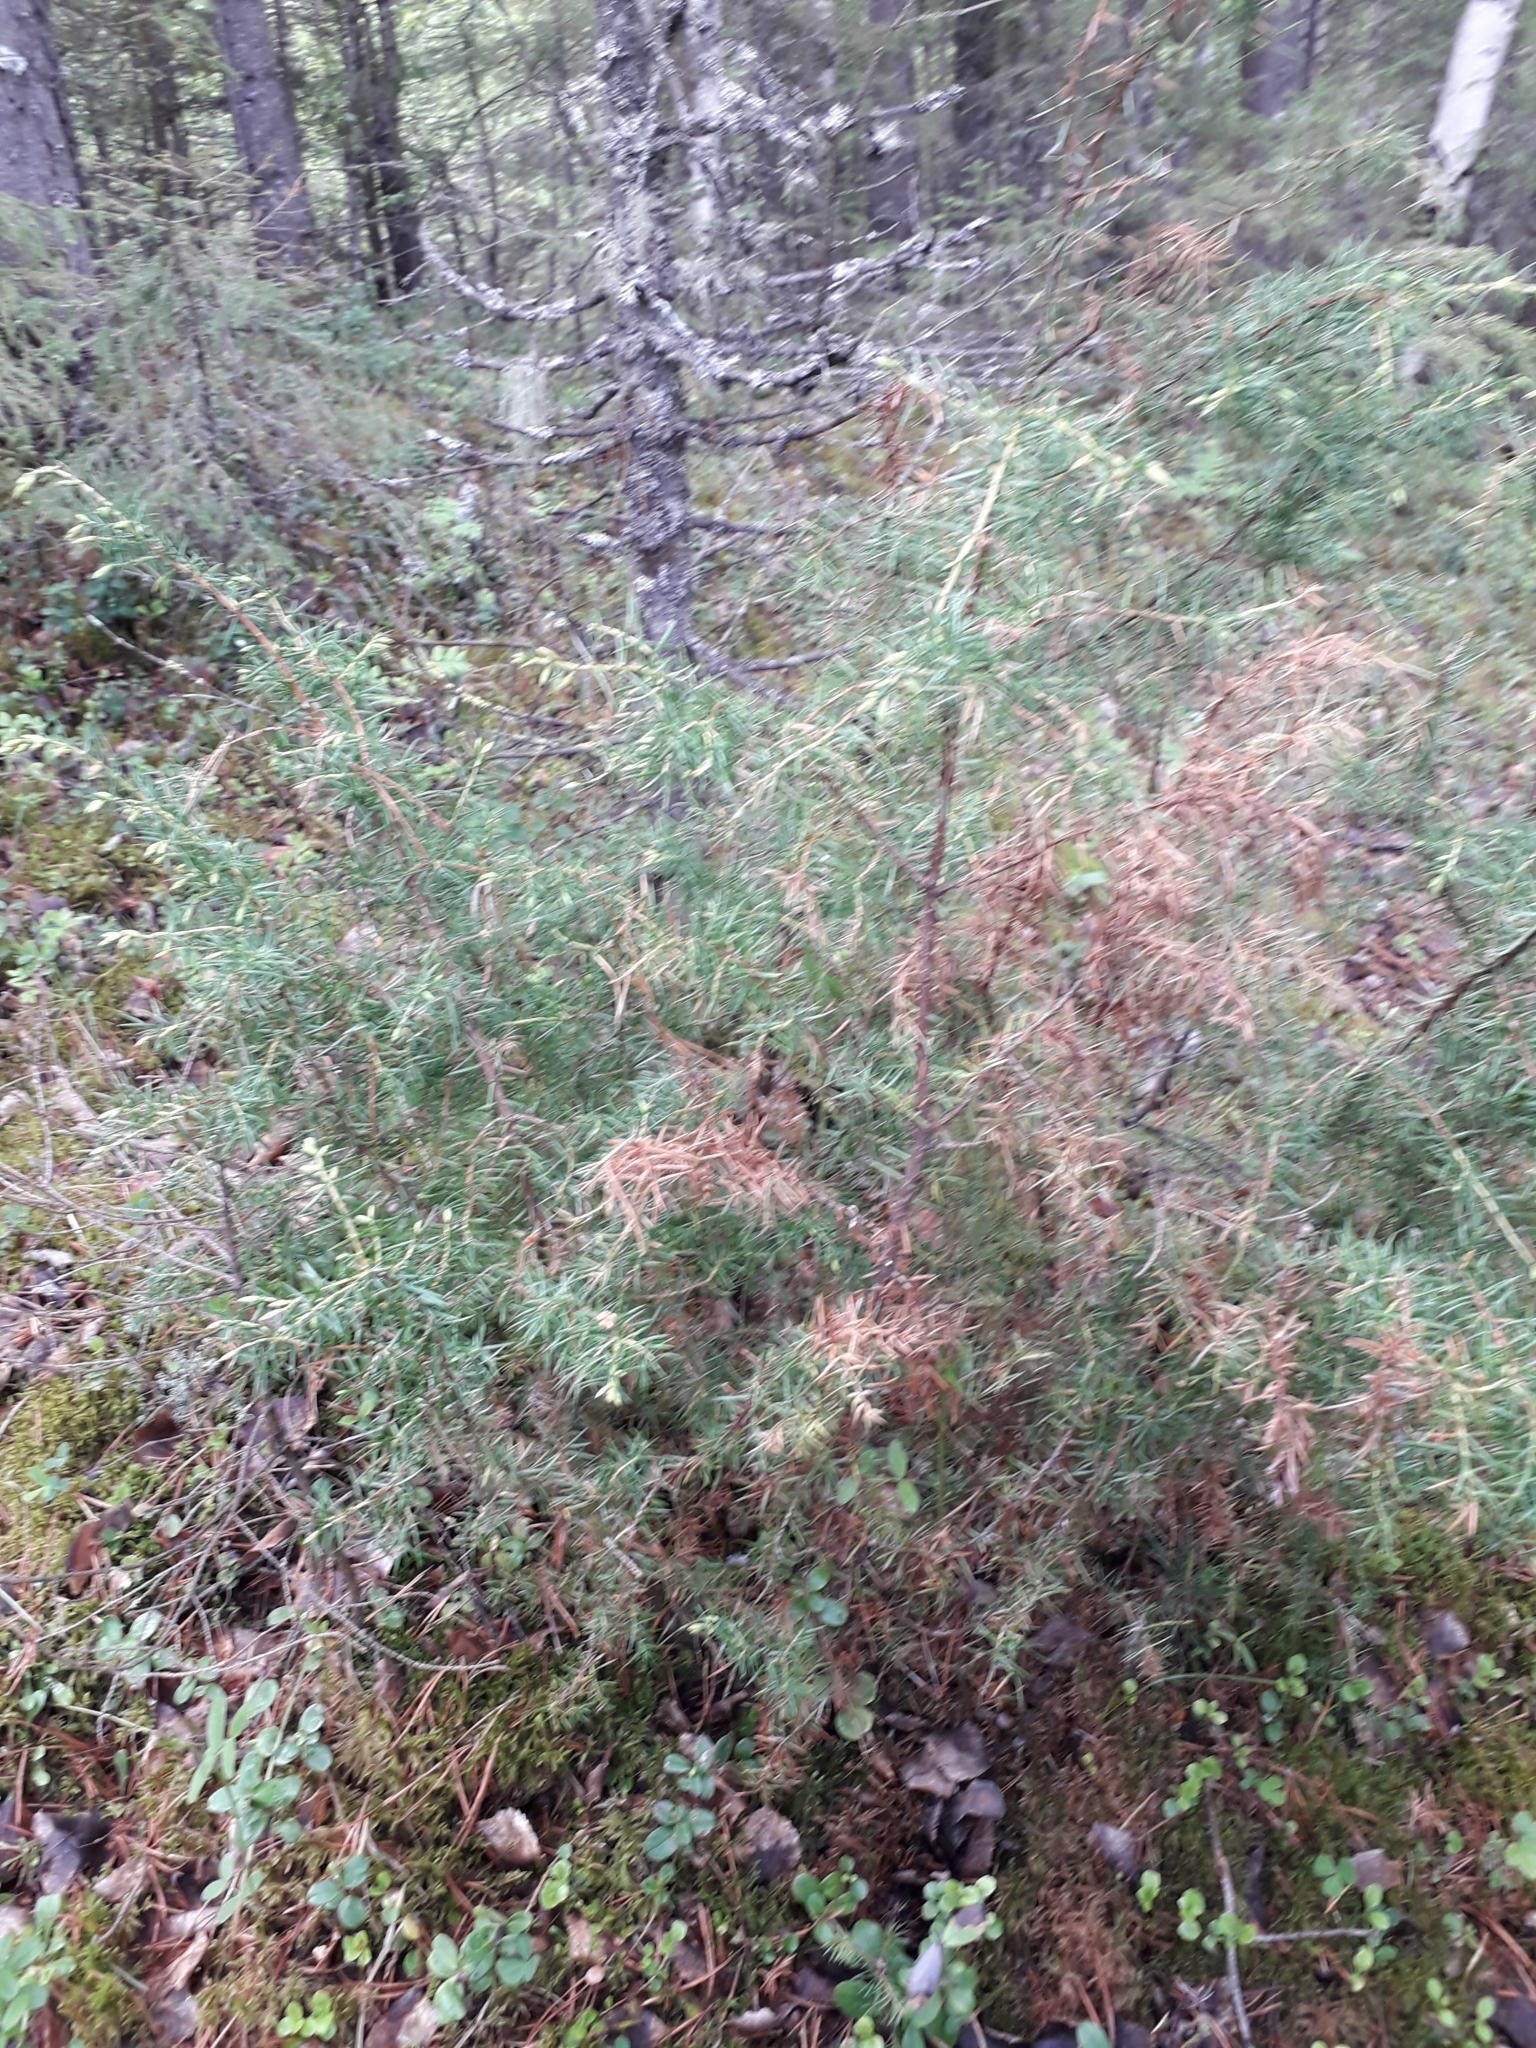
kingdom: Plantae
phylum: Tracheophyta
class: Pinopsida
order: Pinales
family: Cupressaceae
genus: Juniperus
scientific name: Juniperus communis
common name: Common juniper
